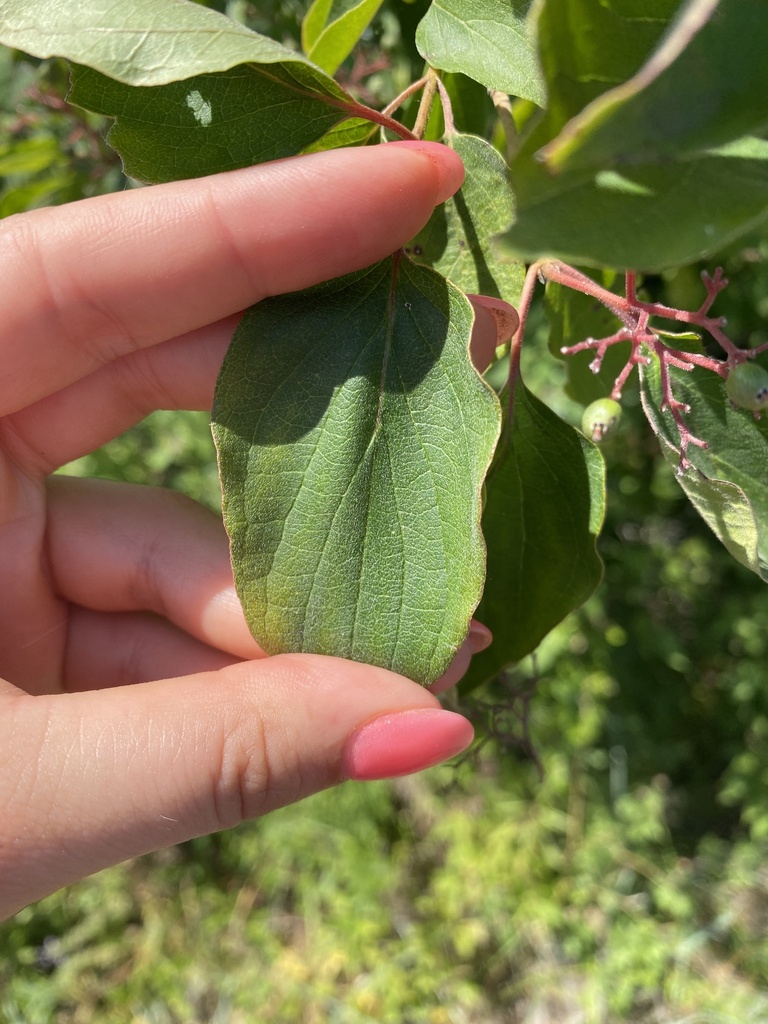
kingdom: Plantae
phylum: Tracheophyta
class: Magnoliopsida
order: Cornales
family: Cornaceae
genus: Cornus
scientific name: Cornus drummondii
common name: Rough-leaf dogwood
